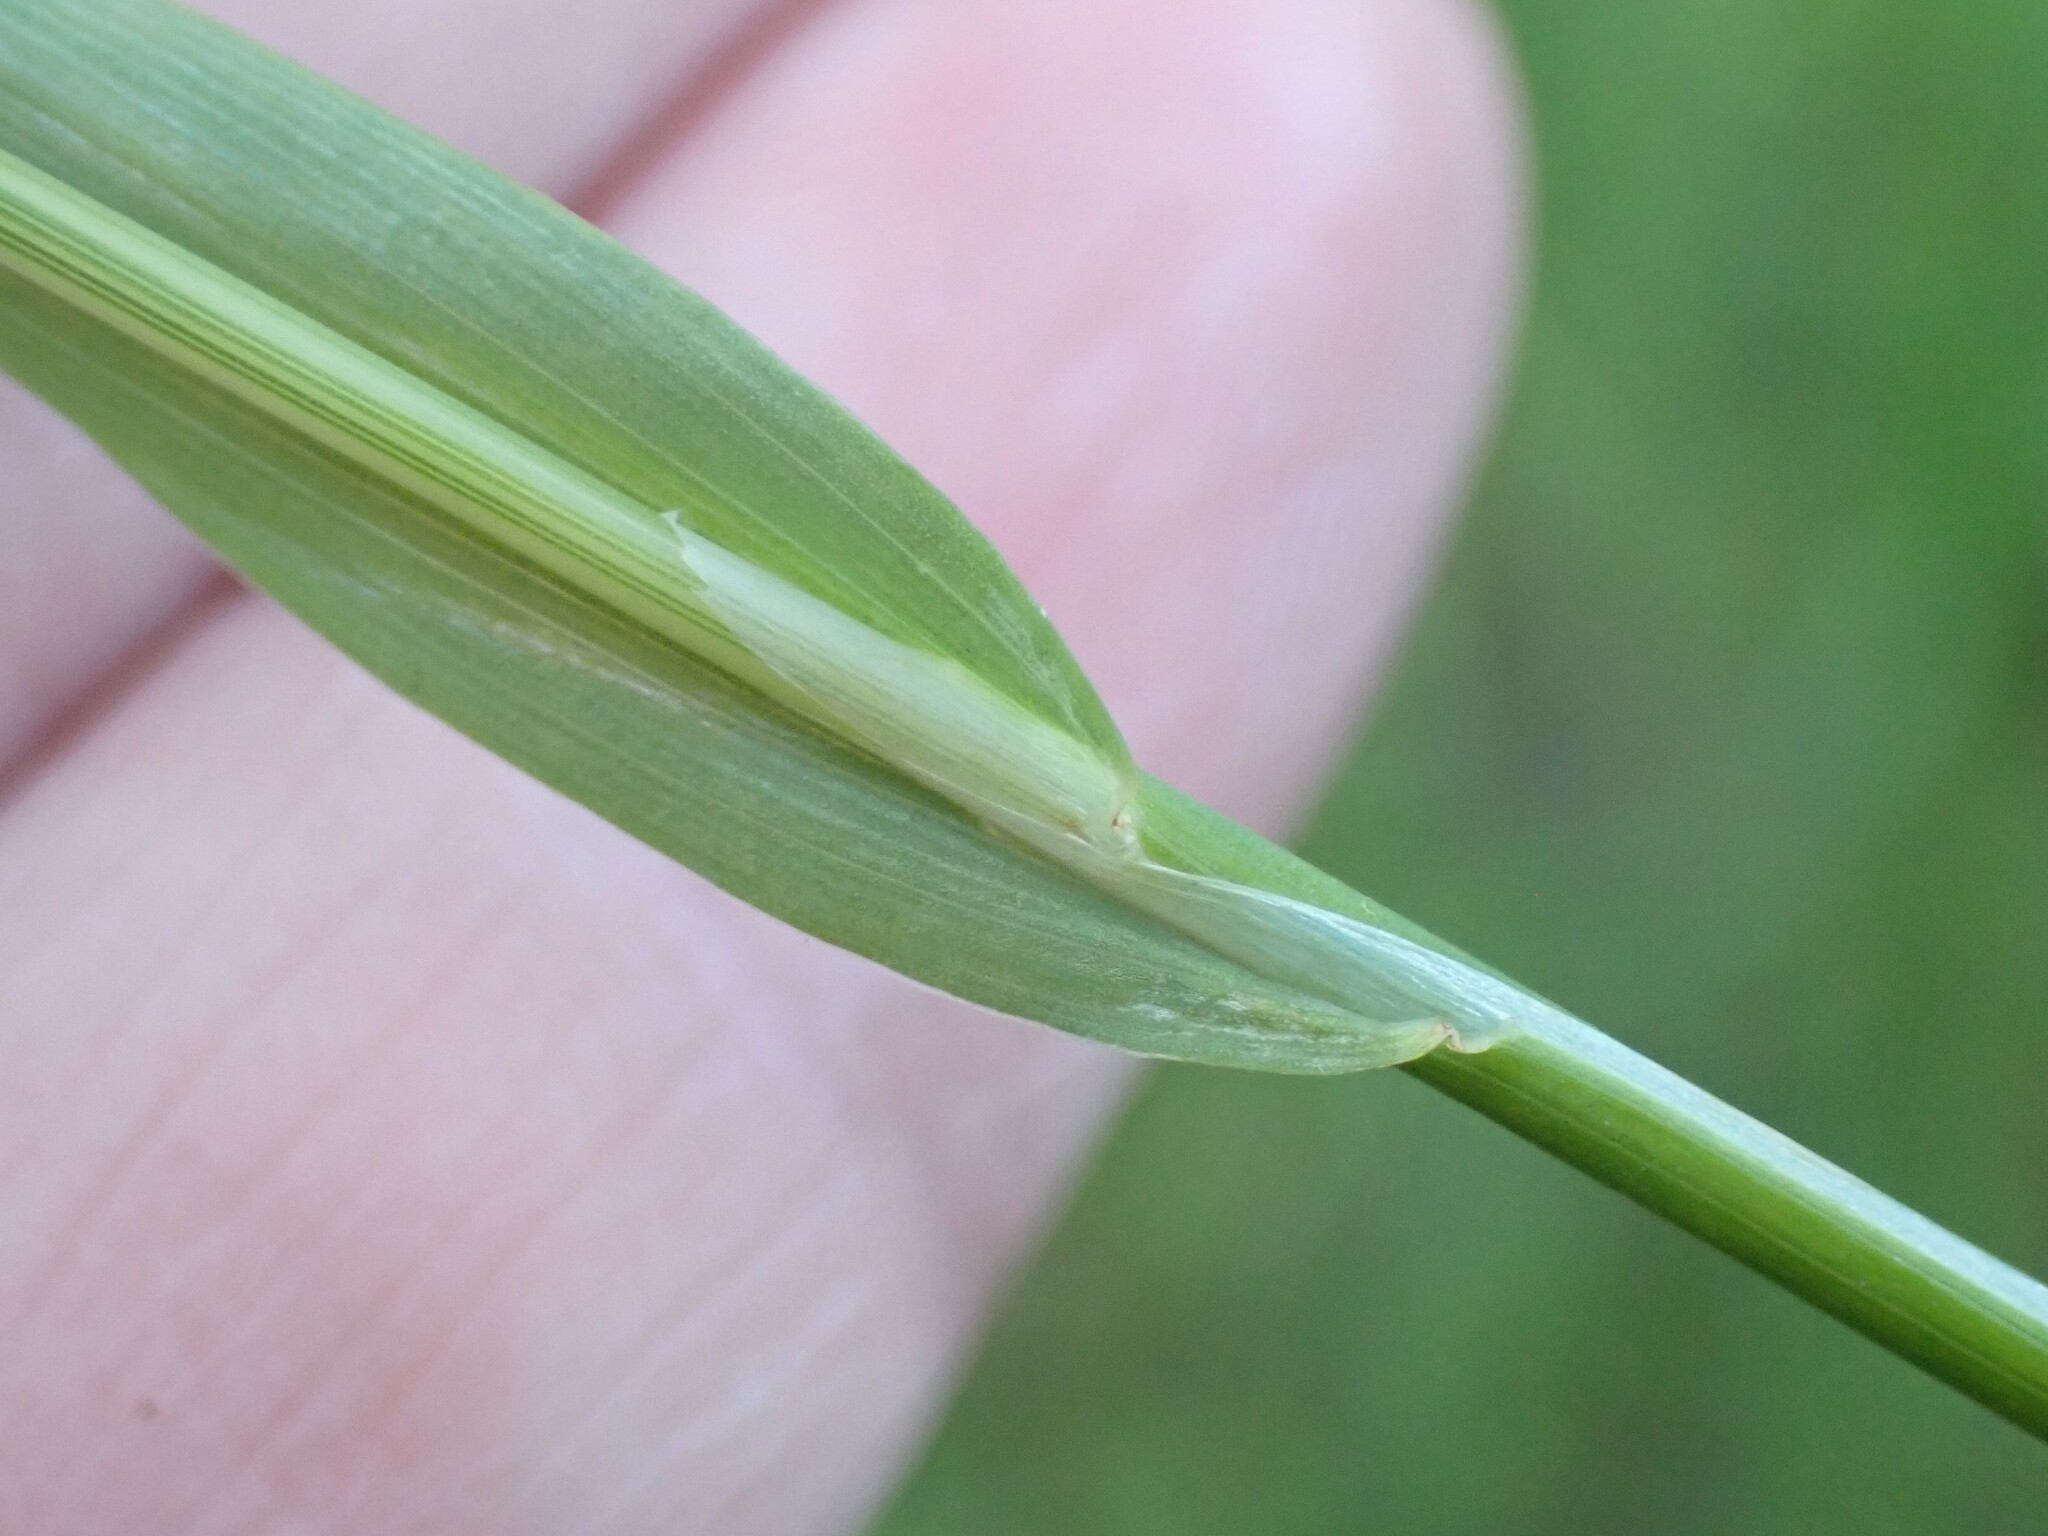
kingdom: Plantae
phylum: Tracheophyta
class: Liliopsida
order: Poales
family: Poaceae
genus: Cynosurus
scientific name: Cynosurus echinatus
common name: Rough dog's-tail
